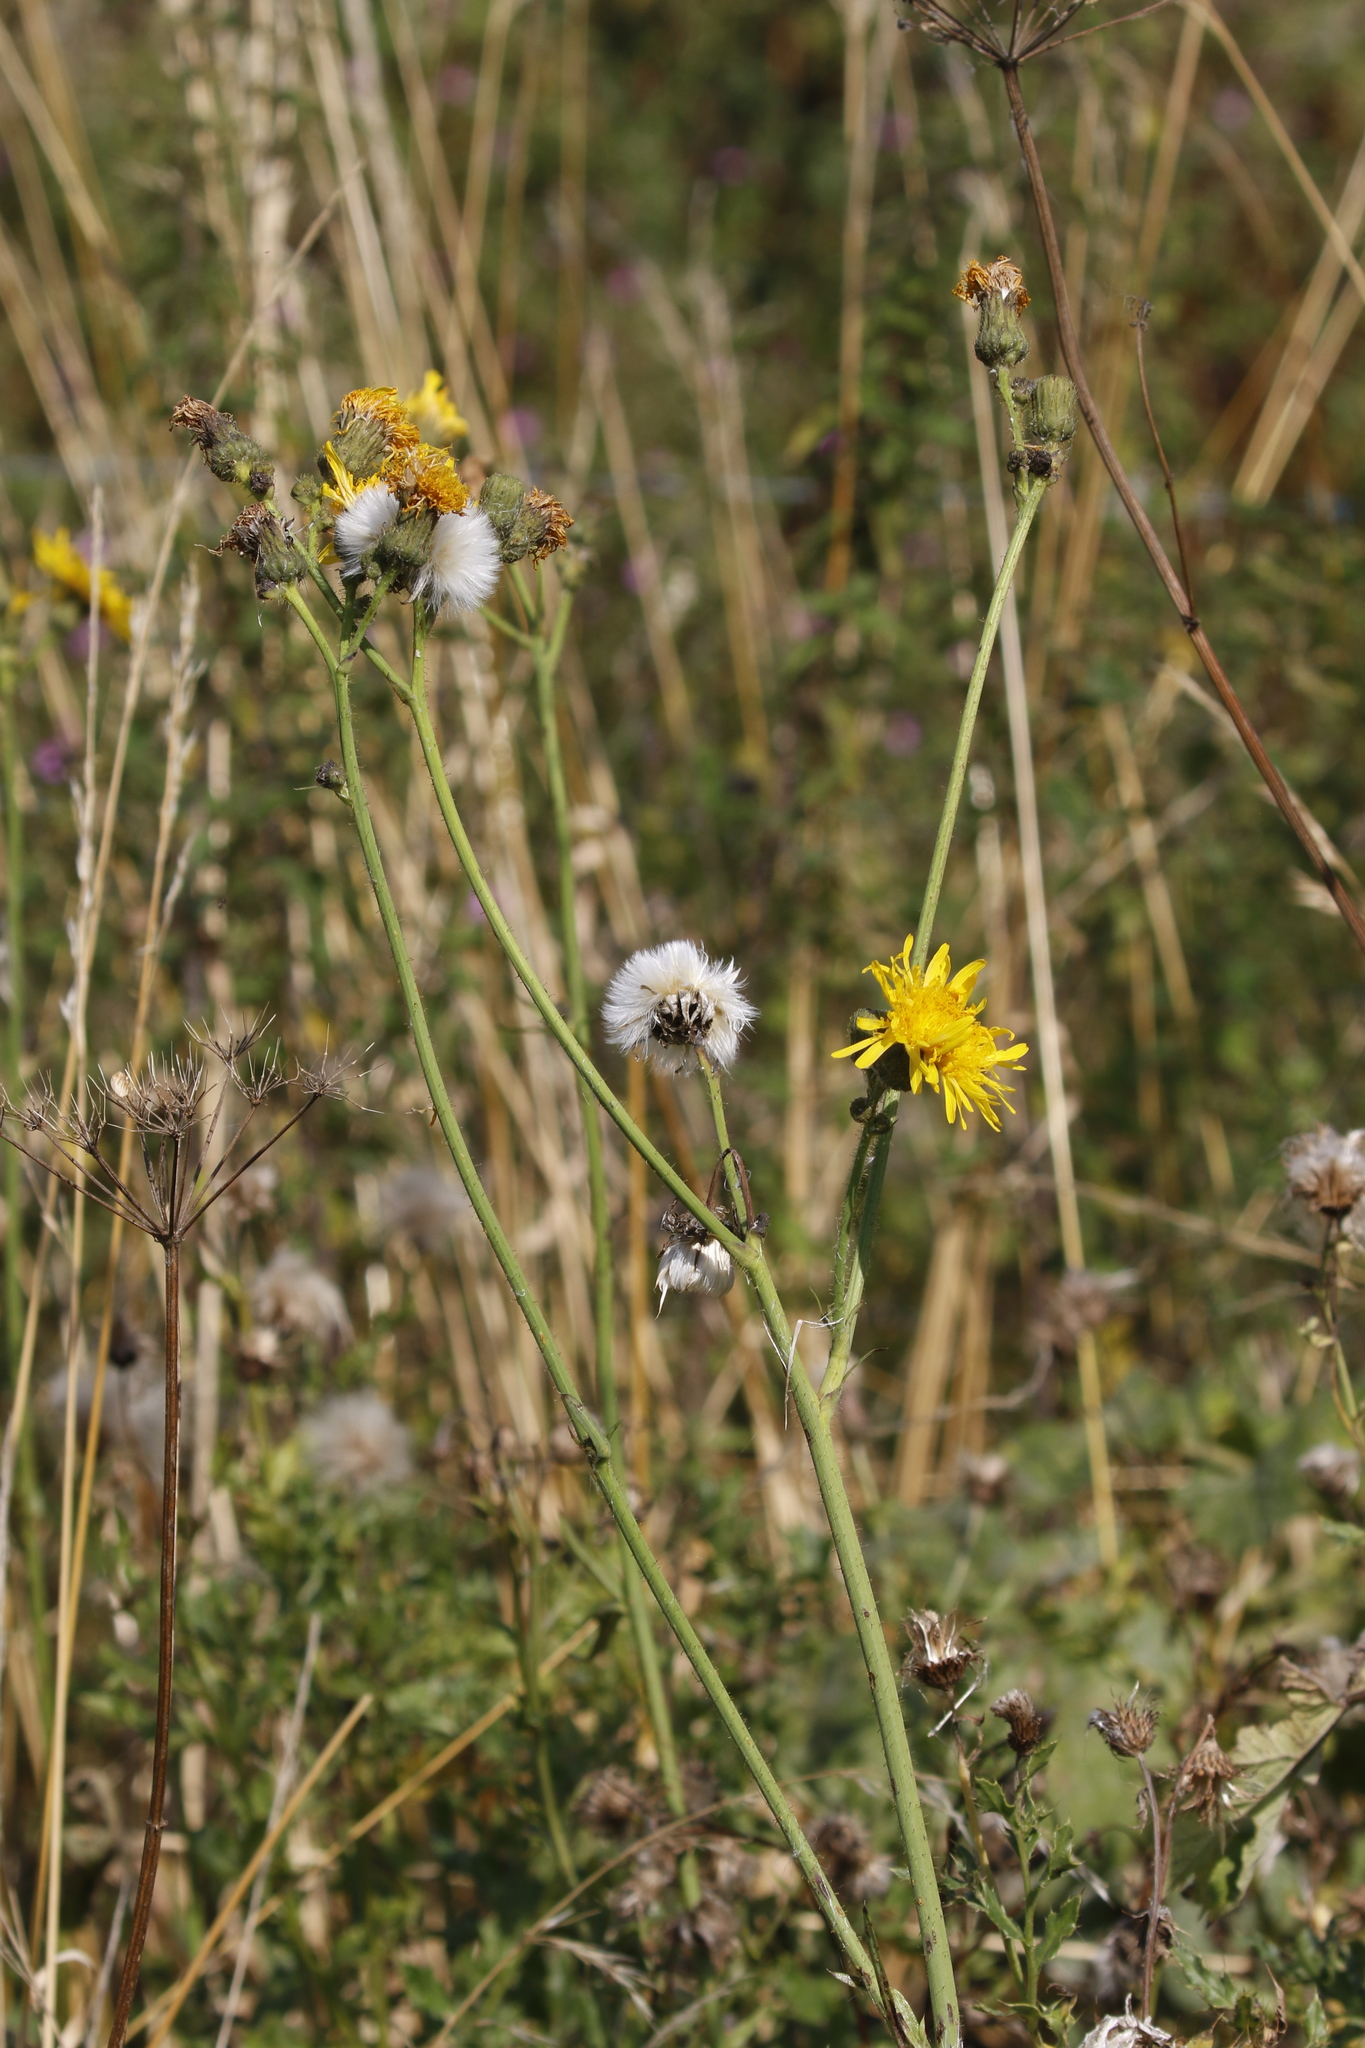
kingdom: Plantae
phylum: Tracheophyta
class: Magnoliopsida
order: Asterales
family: Asteraceae
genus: Sonchus
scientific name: Sonchus arvensis
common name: Perennial sow-thistle
